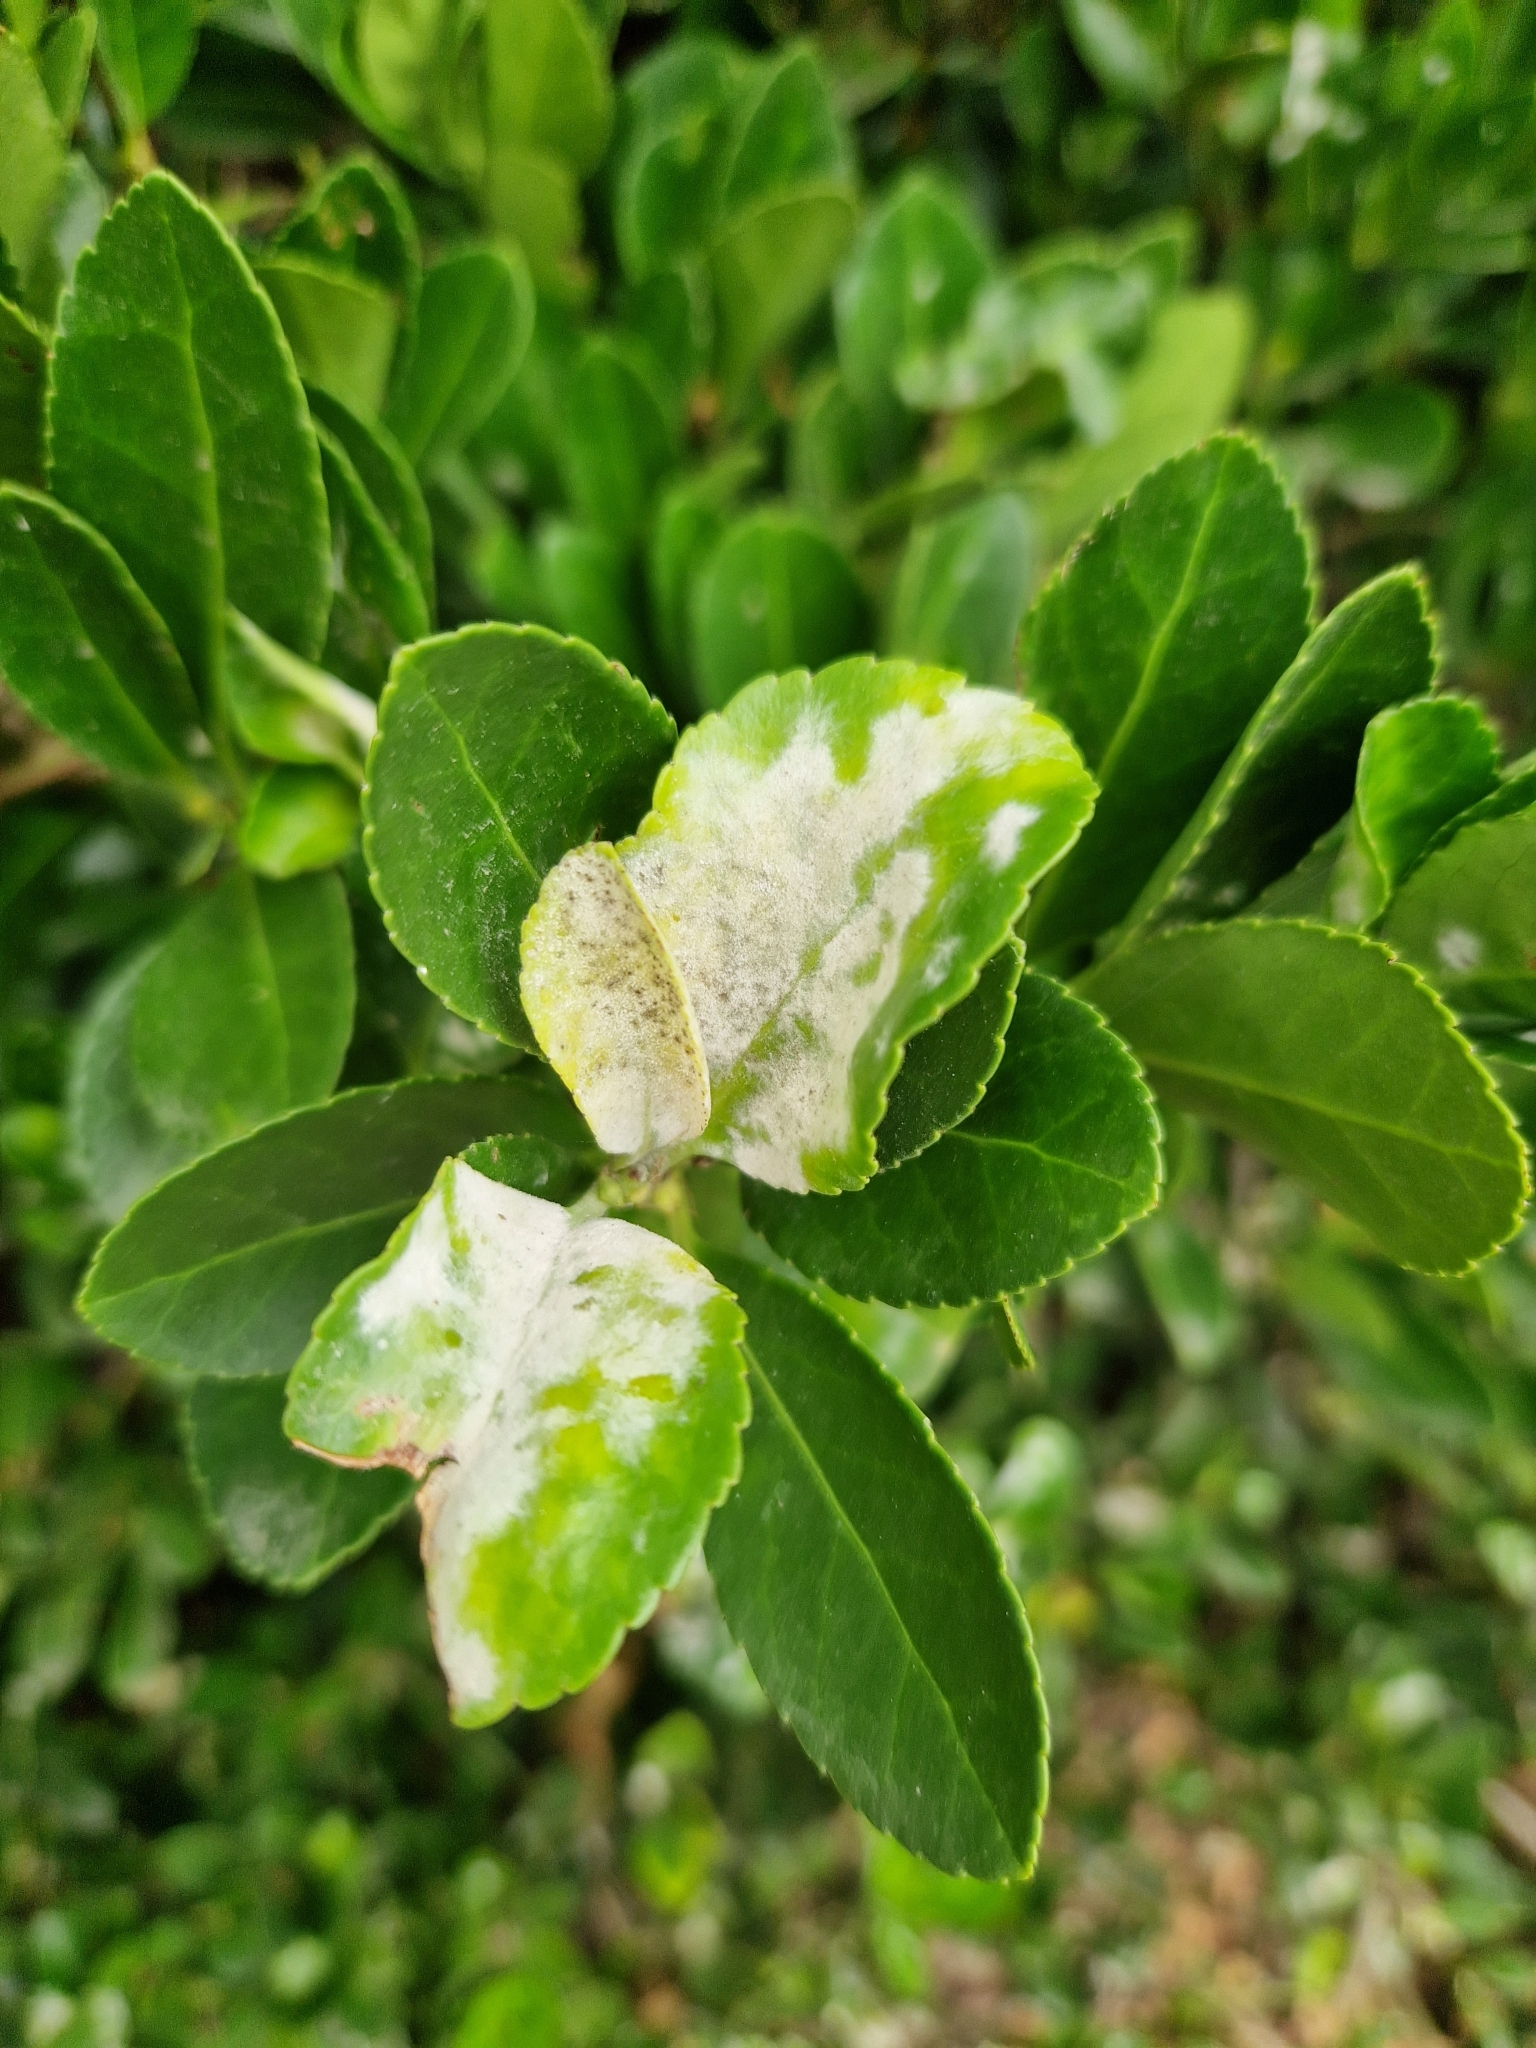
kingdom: Fungi
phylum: Ascomycota
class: Leotiomycetes
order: Helotiales
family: Erysiphaceae
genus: Erysiphe
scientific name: Erysiphe euonymicola
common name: Spindletree mildew
